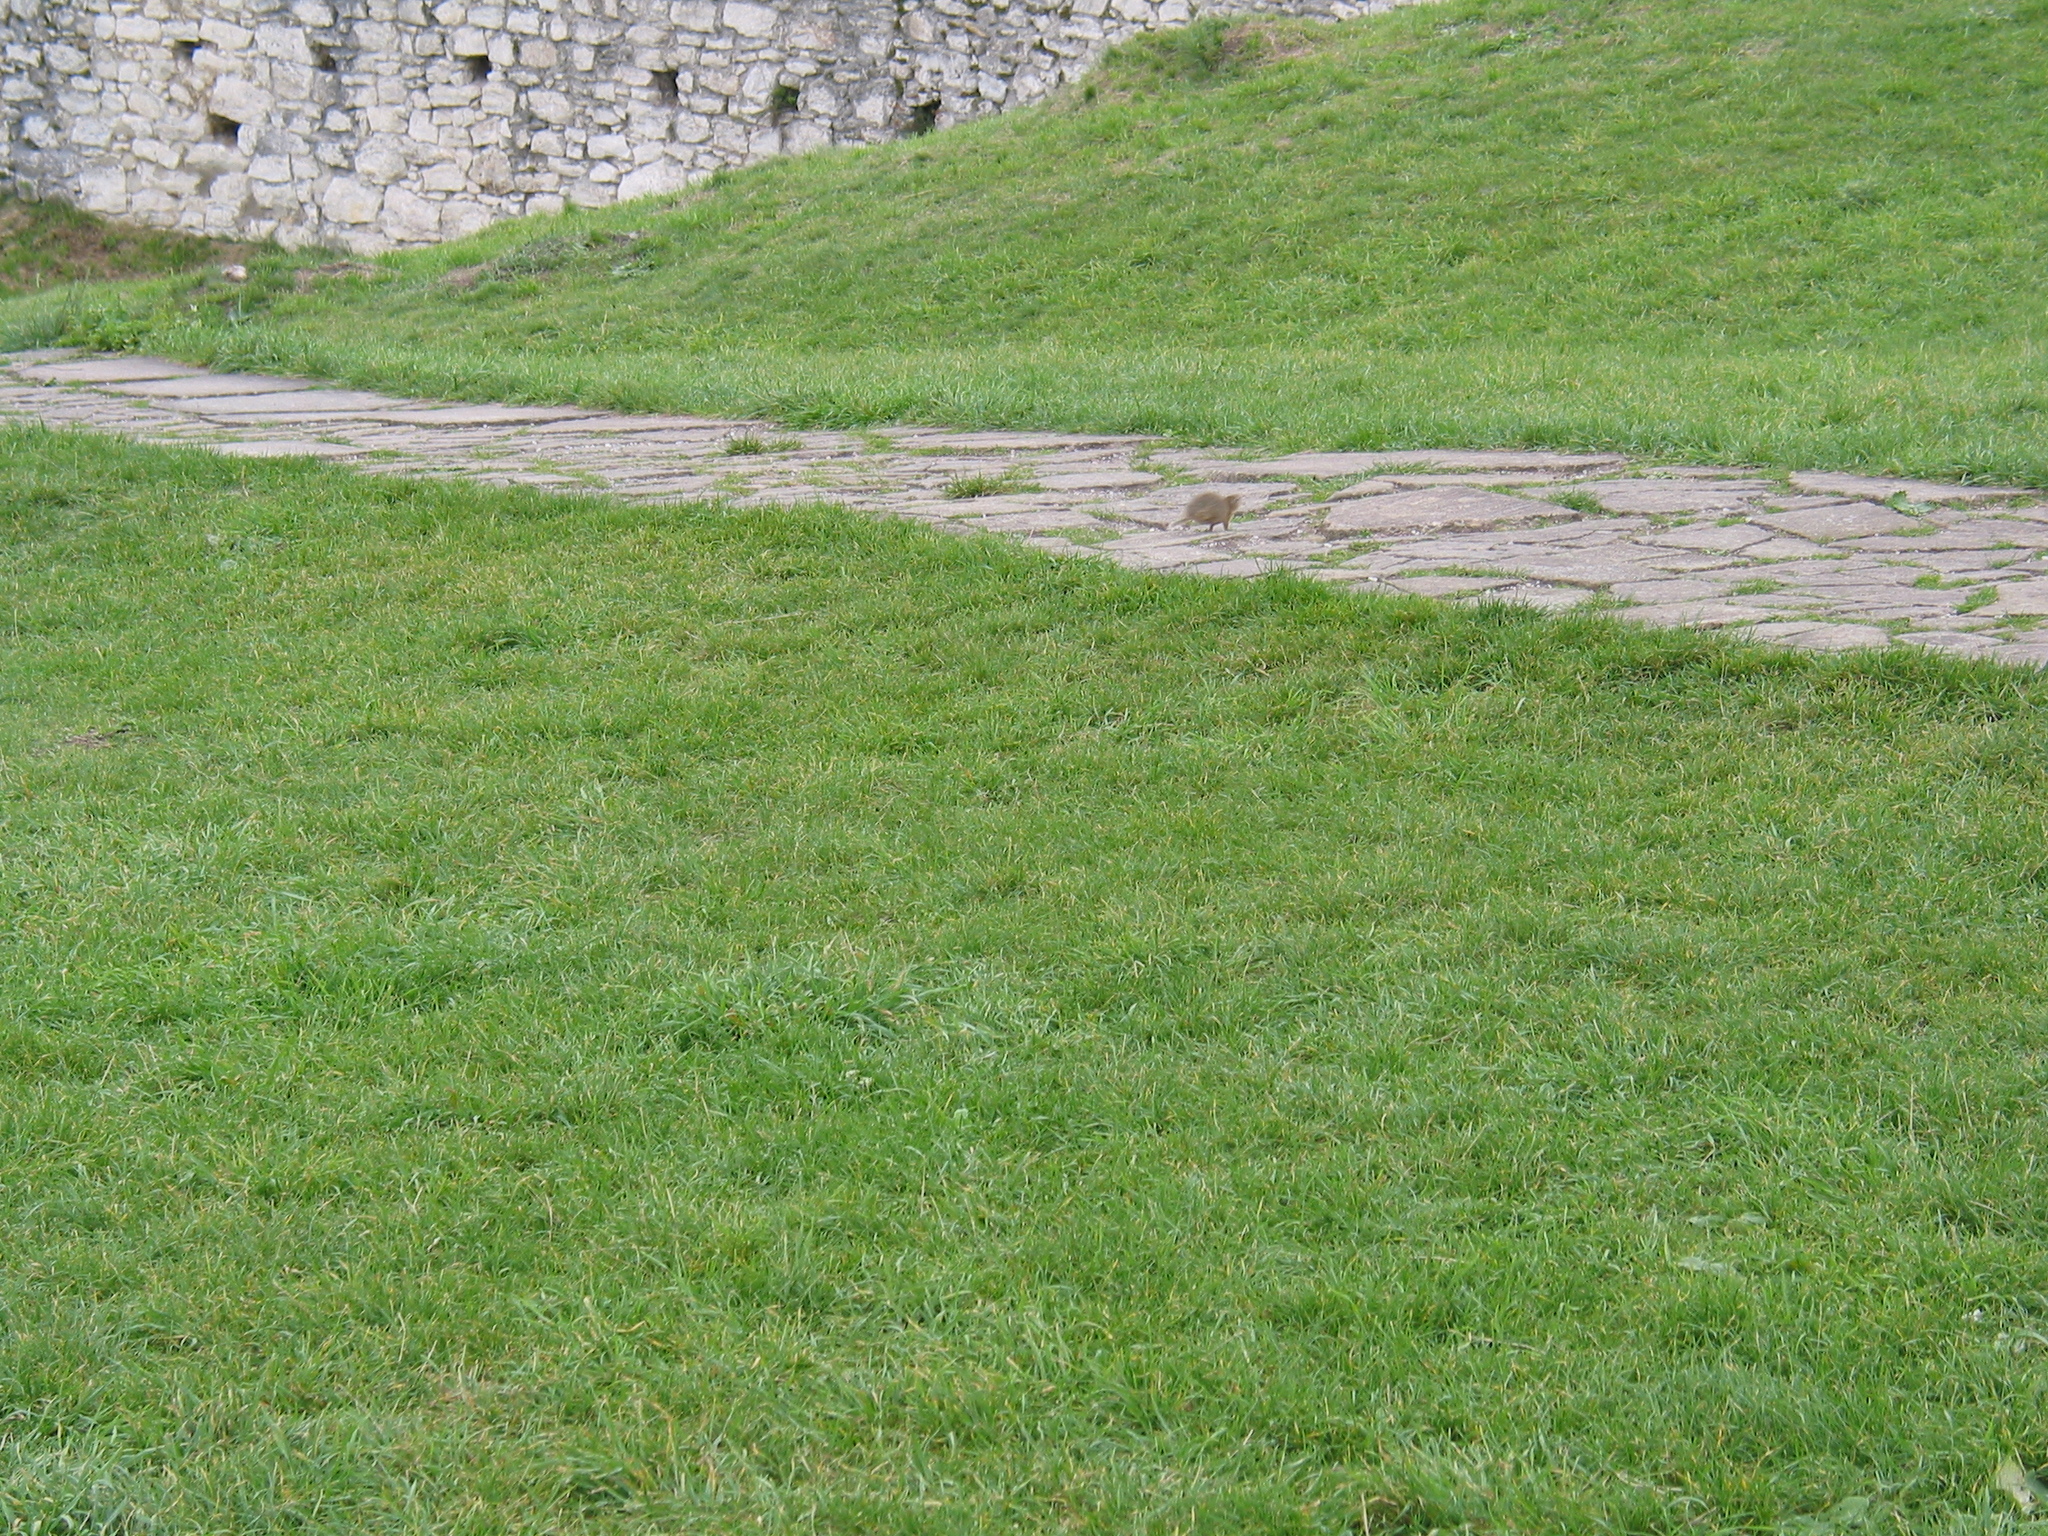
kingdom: Animalia
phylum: Chordata
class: Mammalia
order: Rodentia
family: Sciuridae
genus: Spermophilus
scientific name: Spermophilus citellus
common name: European ground squirrel
